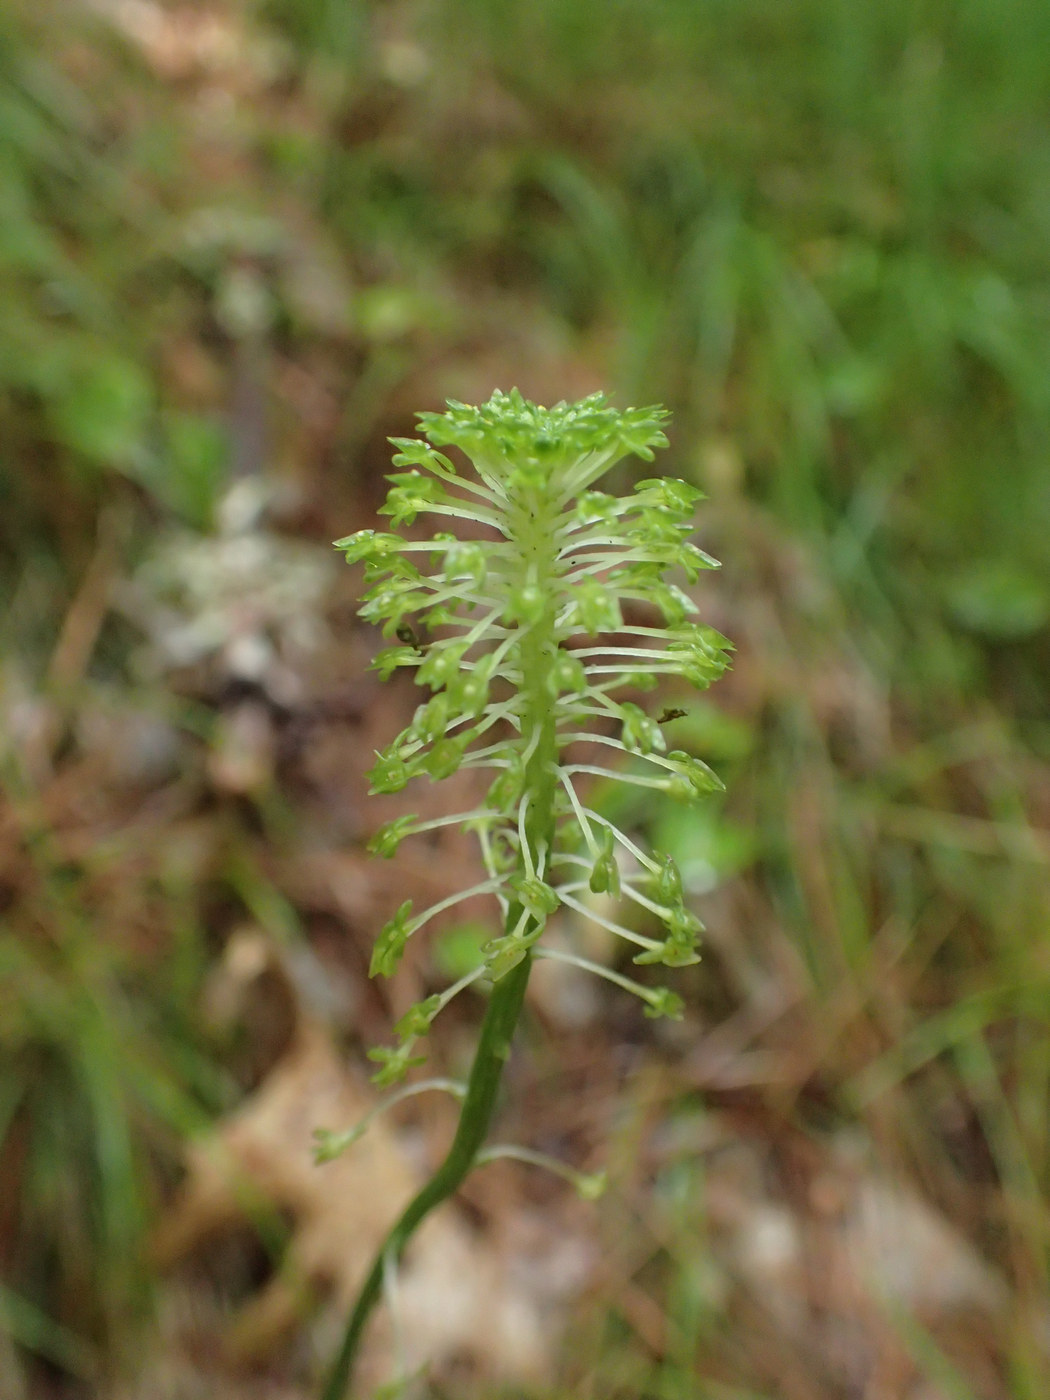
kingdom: Plantae
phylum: Tracheophyta
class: Liliopsida
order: Asparagales
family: Orchidaceae
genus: Malaxis
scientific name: Malaxis unifolia
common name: Green adder's-mouth
